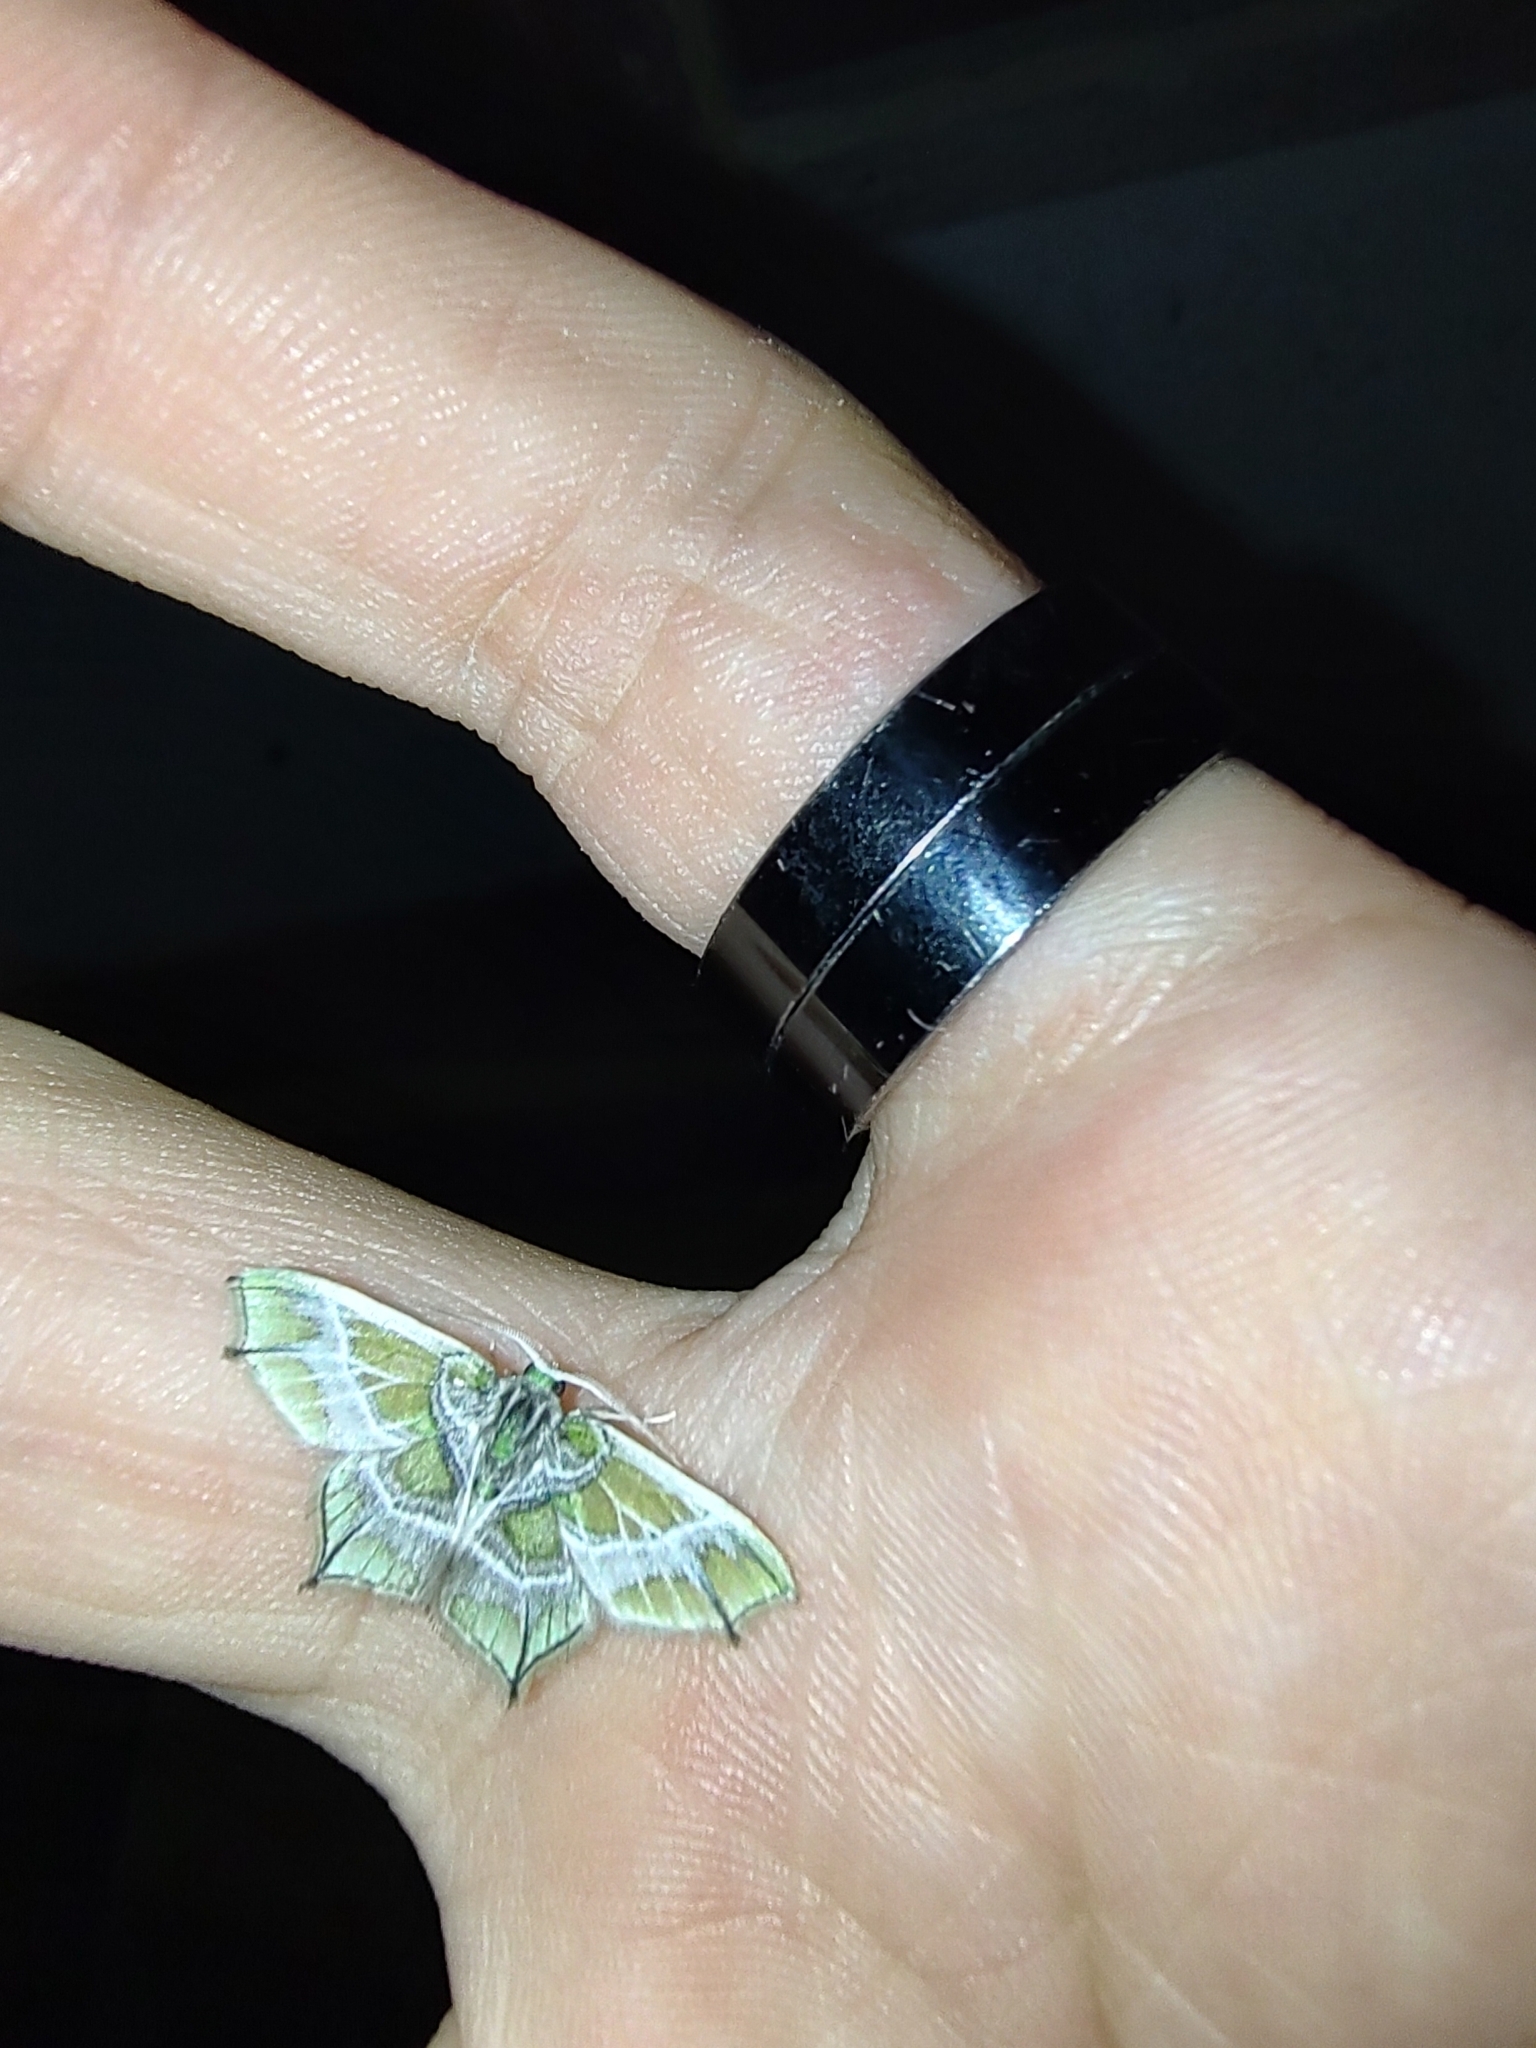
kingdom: Animalia
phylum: Arthropoda
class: Insecta
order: Lepidoptera
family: Geometridae
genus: Chloractis
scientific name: Chloractis pulcherrima
